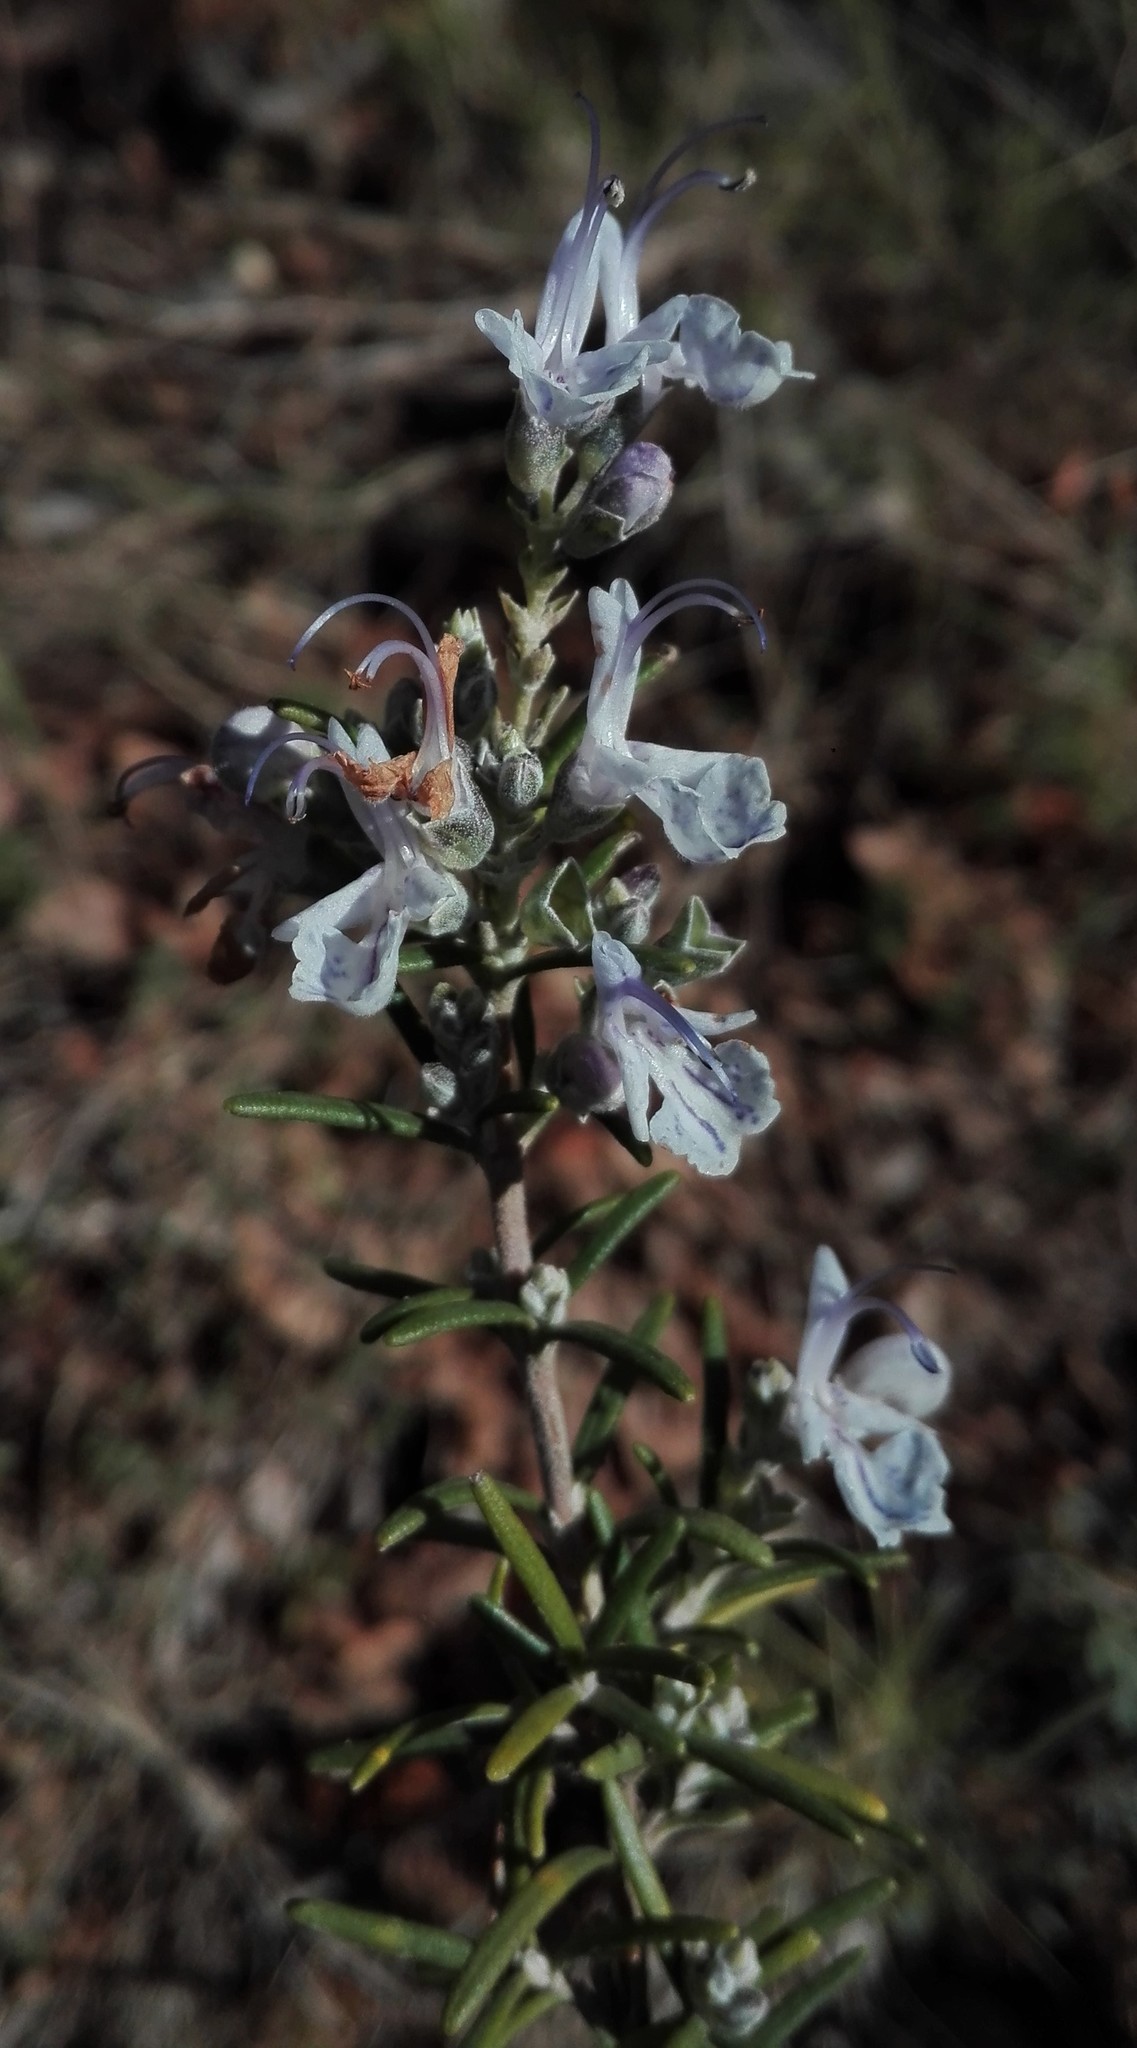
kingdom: Plantae
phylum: Tracheophyta
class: Magnoliopsida
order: Lamiales
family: Lamiaceae
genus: Salvia
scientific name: Salvia rosmarinus
